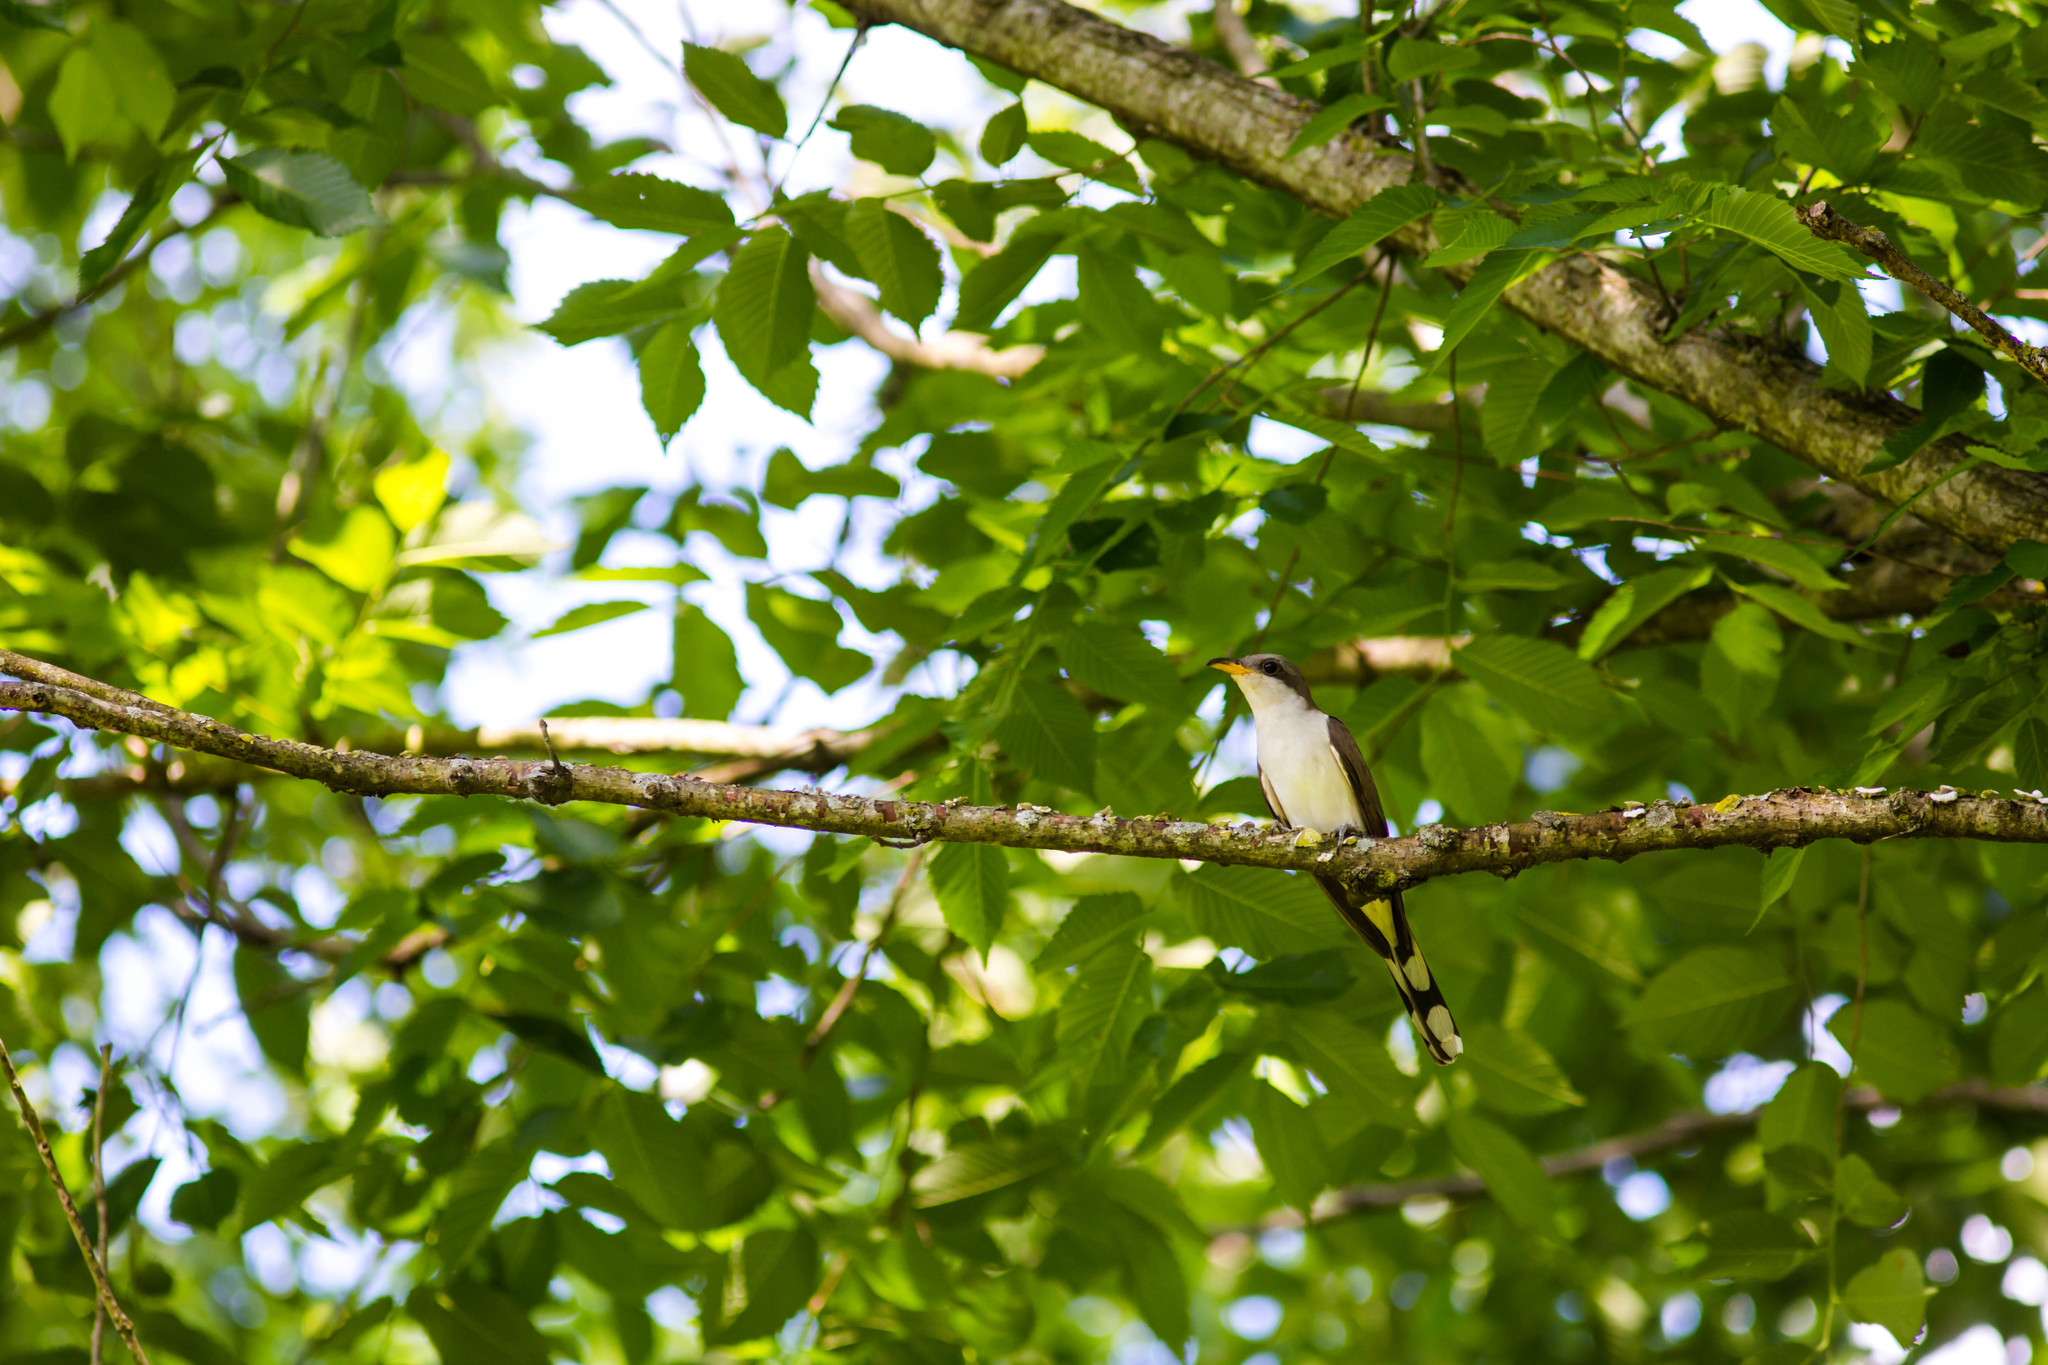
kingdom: Animalia
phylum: Chordata
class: Aves
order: Cuculiformes
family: Cuculidae
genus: Coccyzus
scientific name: Coccyzus americanus
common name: Yellow-billed cuckoo
